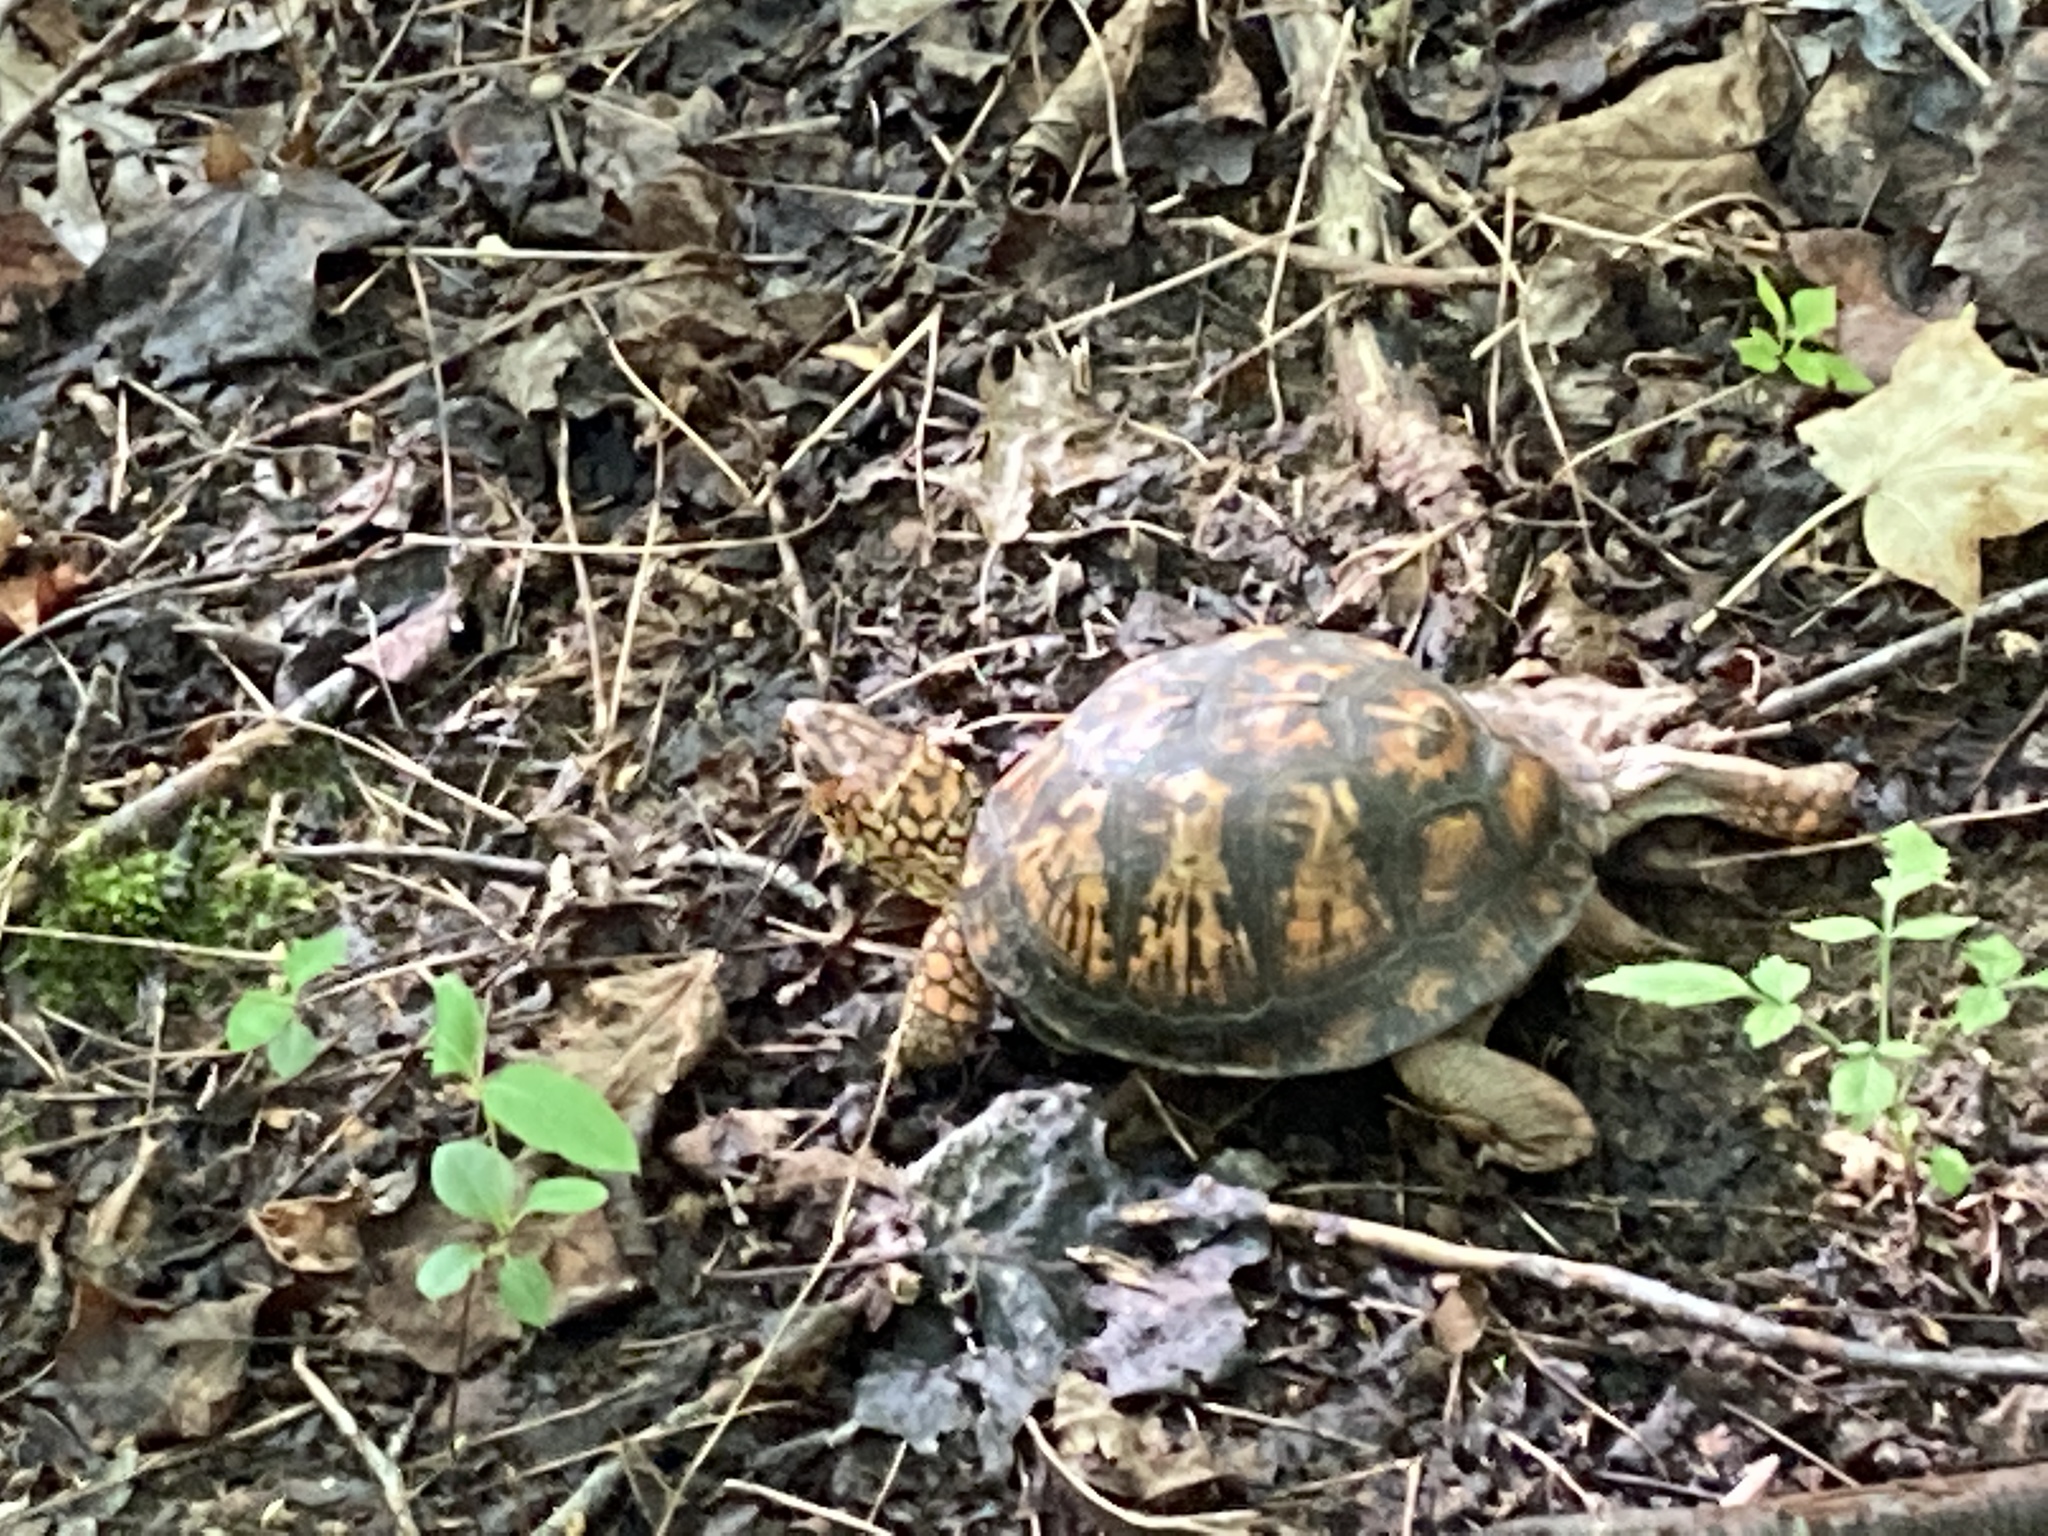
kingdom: Animalia
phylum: Chordata
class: Testudines
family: Emydidae
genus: Terrapene
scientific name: Terrapene carolina
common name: Common box turtle
